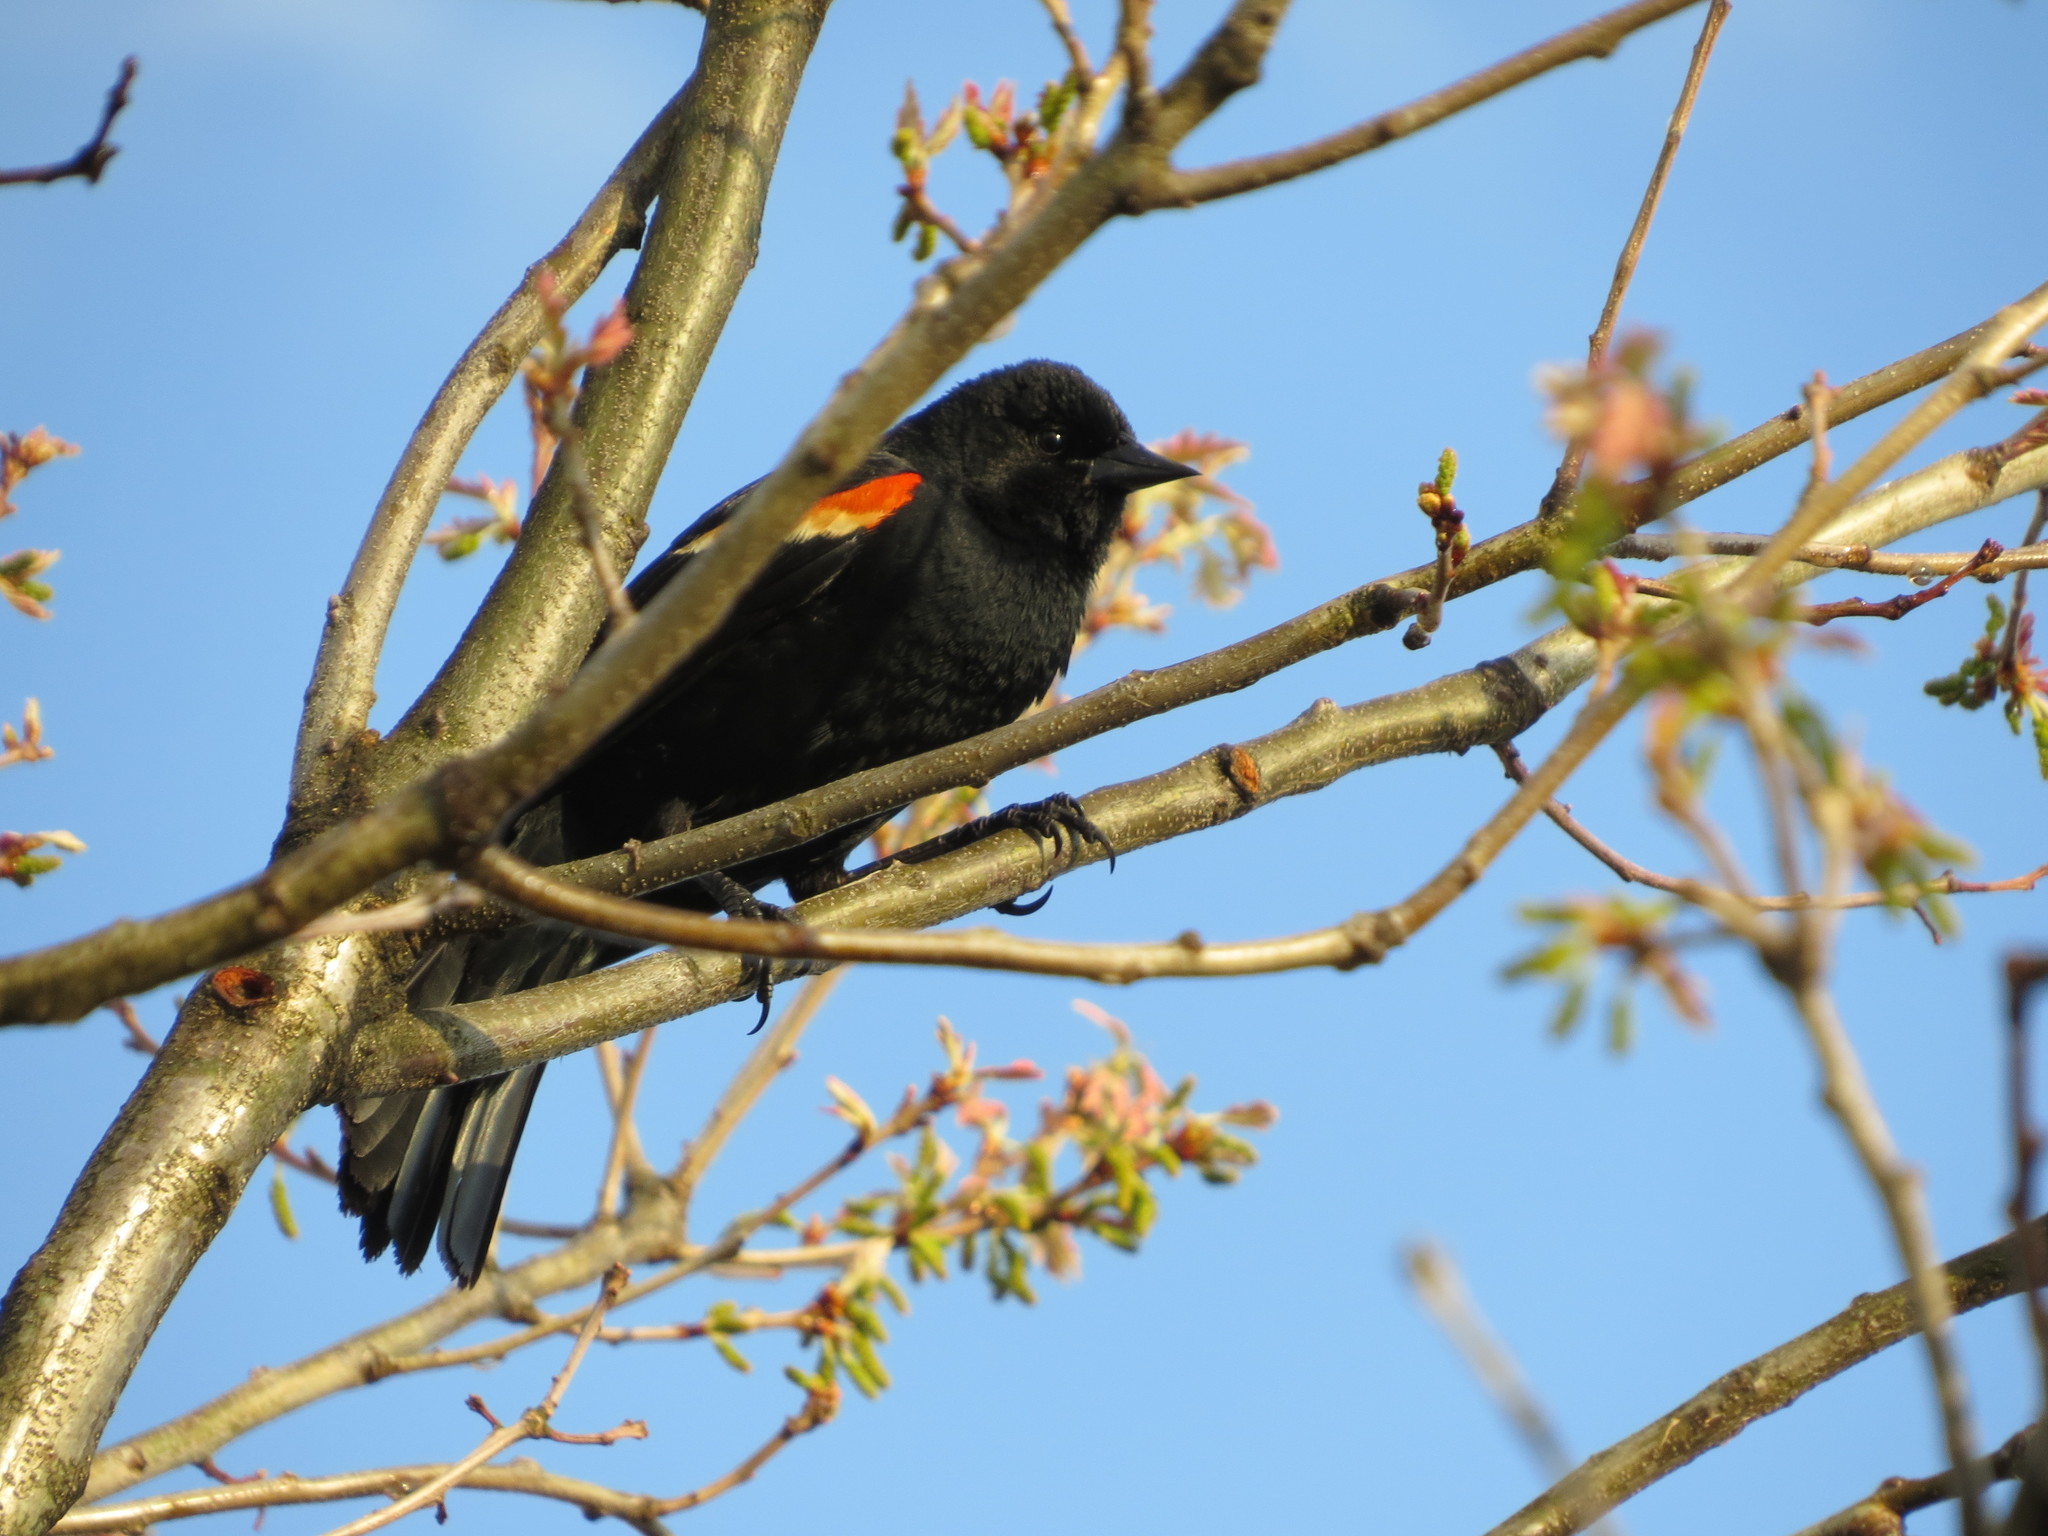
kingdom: Animalia
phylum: Chordata
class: Aves
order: Passeriformes
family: Icteridae
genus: Agelaius
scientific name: Agelaius phoeniceus
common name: Red-winged blackbird
